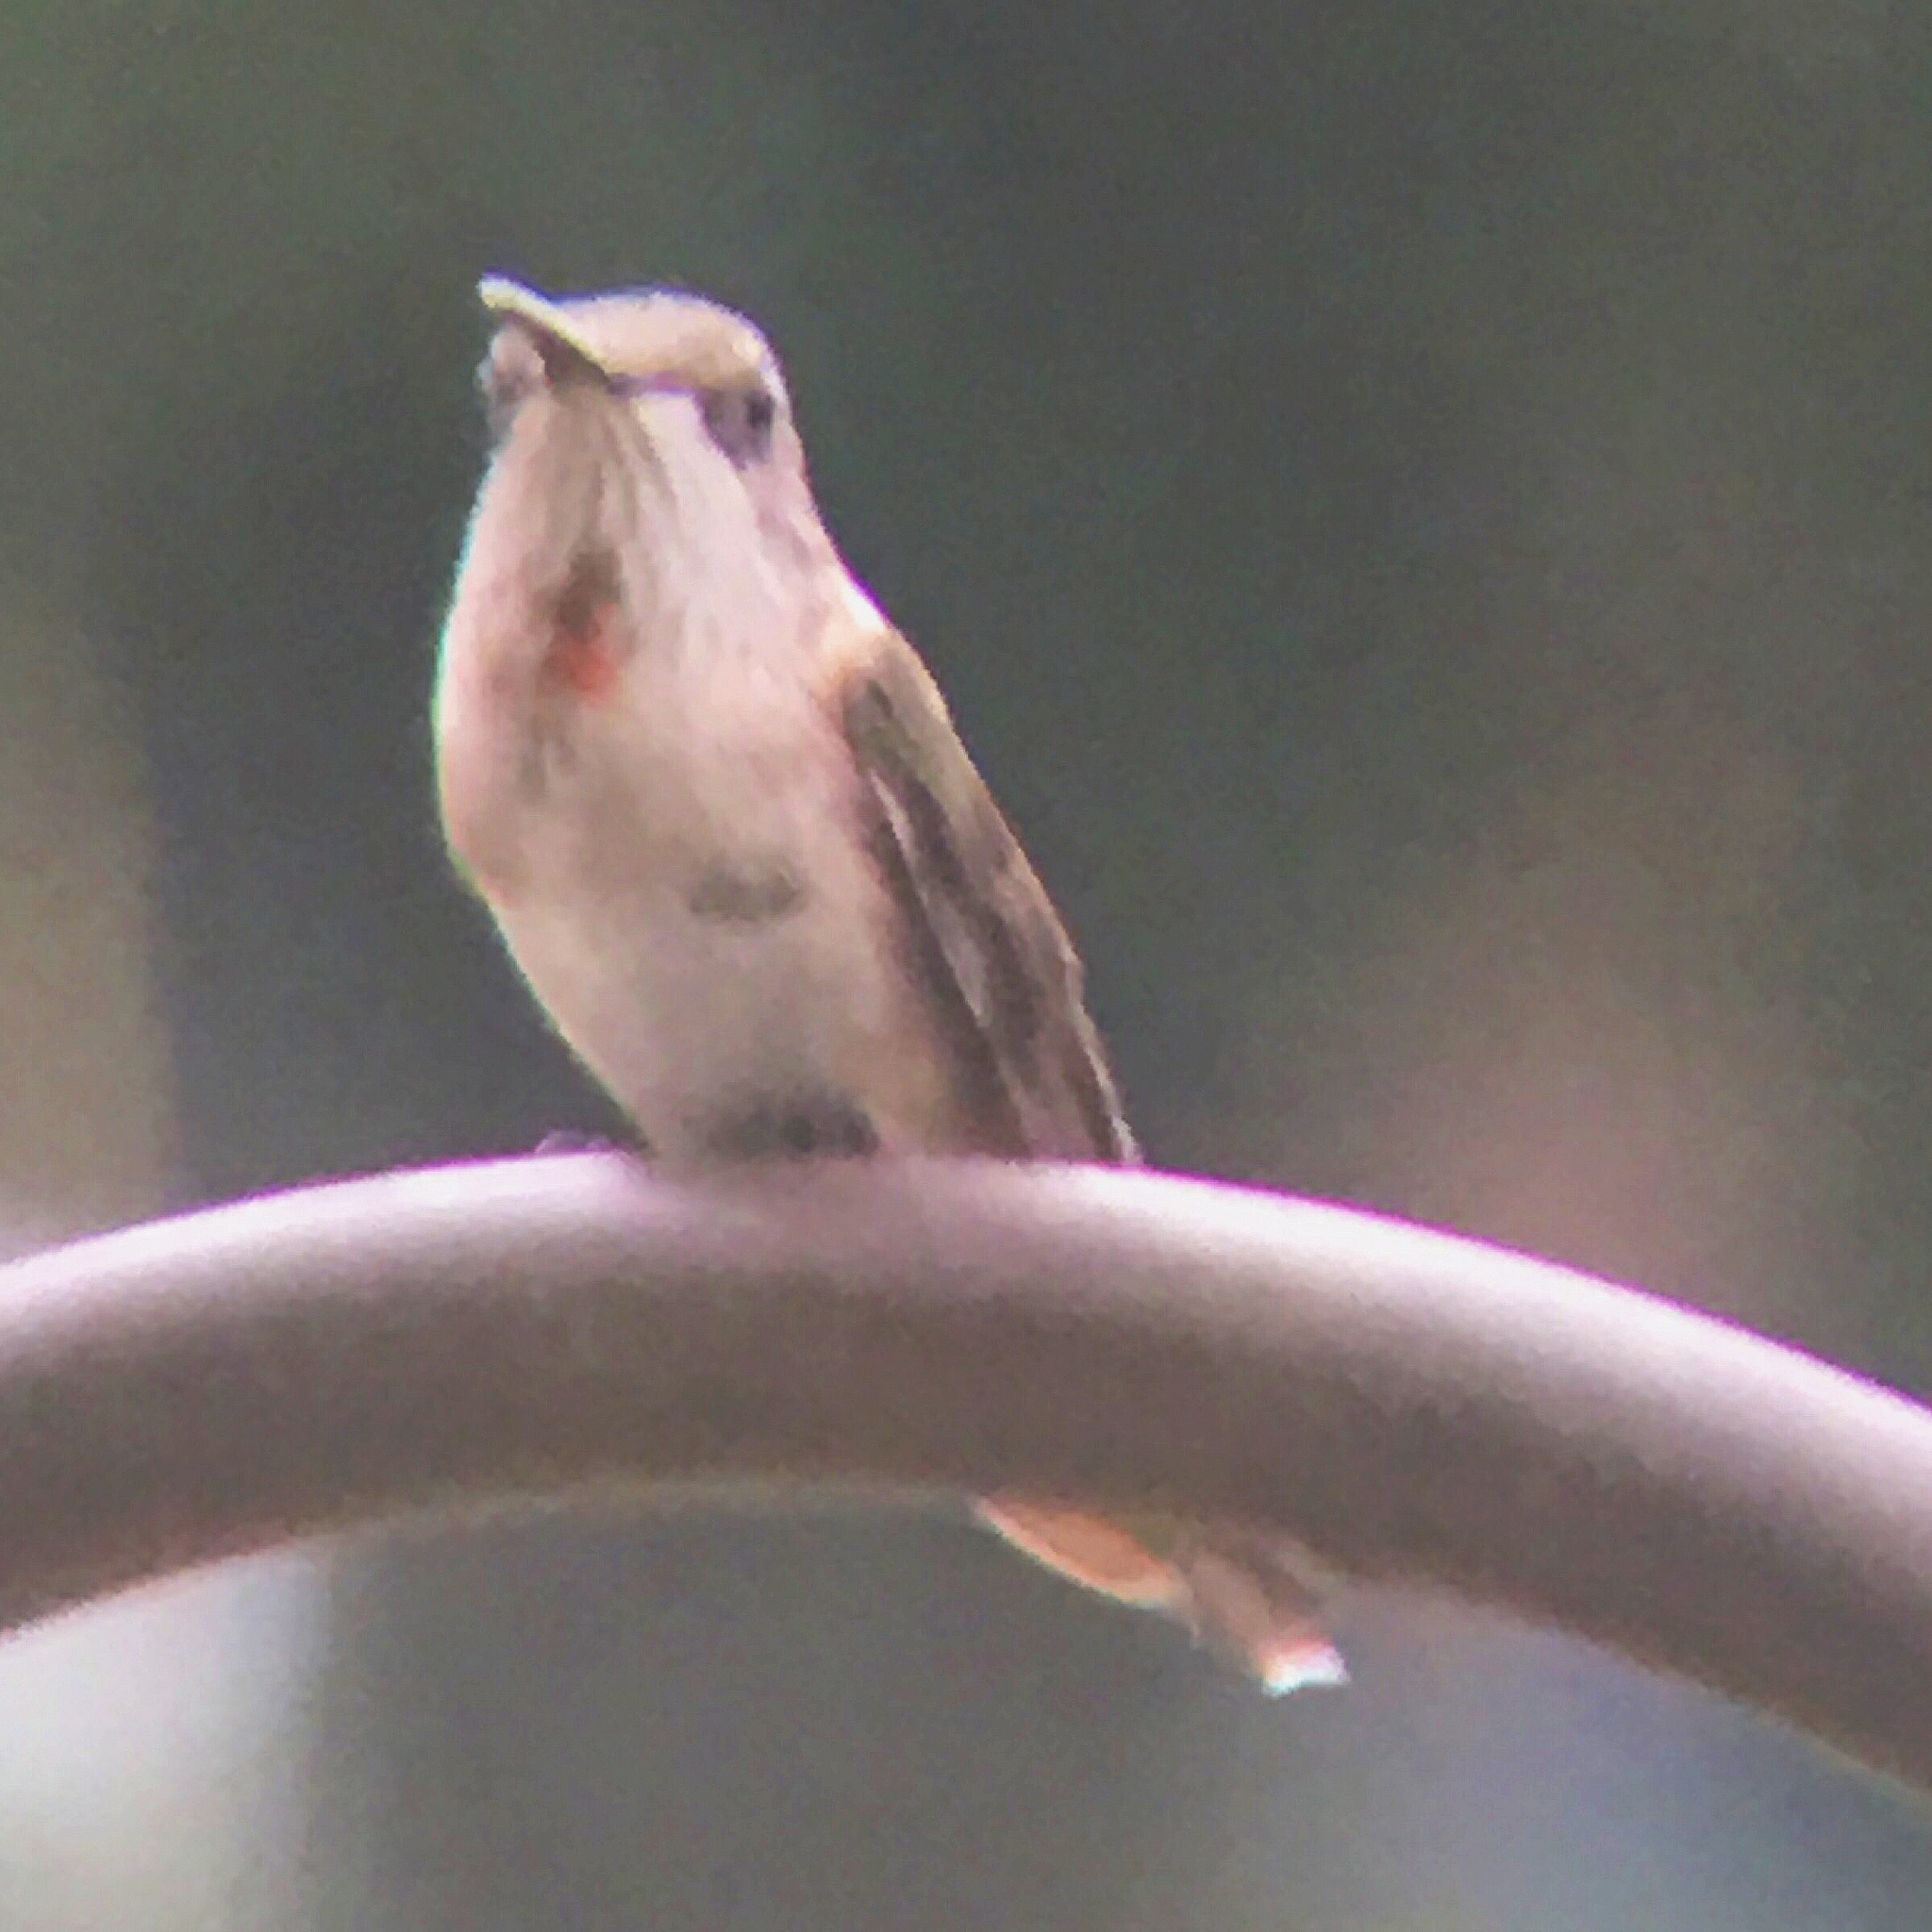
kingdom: Animalia
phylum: Chordata
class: Aves
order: Apodiformes
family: Trochilidae
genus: Archilochus
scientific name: Archilochus colubris
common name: Ruby-throated hummingbird
